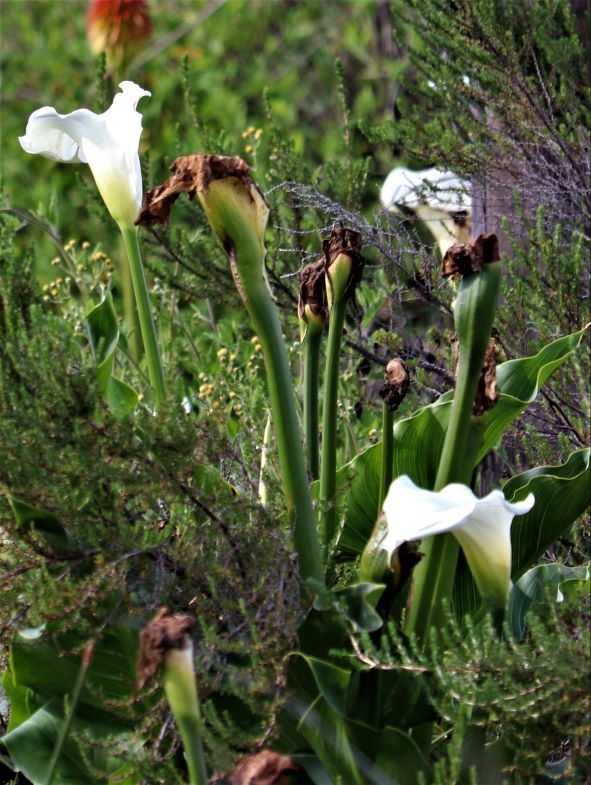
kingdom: Plantae
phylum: Tracheophyta
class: Liliopsida
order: Alismatales
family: Araceae
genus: Zantedeschia
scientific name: Zantedeschia aethiopica
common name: Altar-lily
